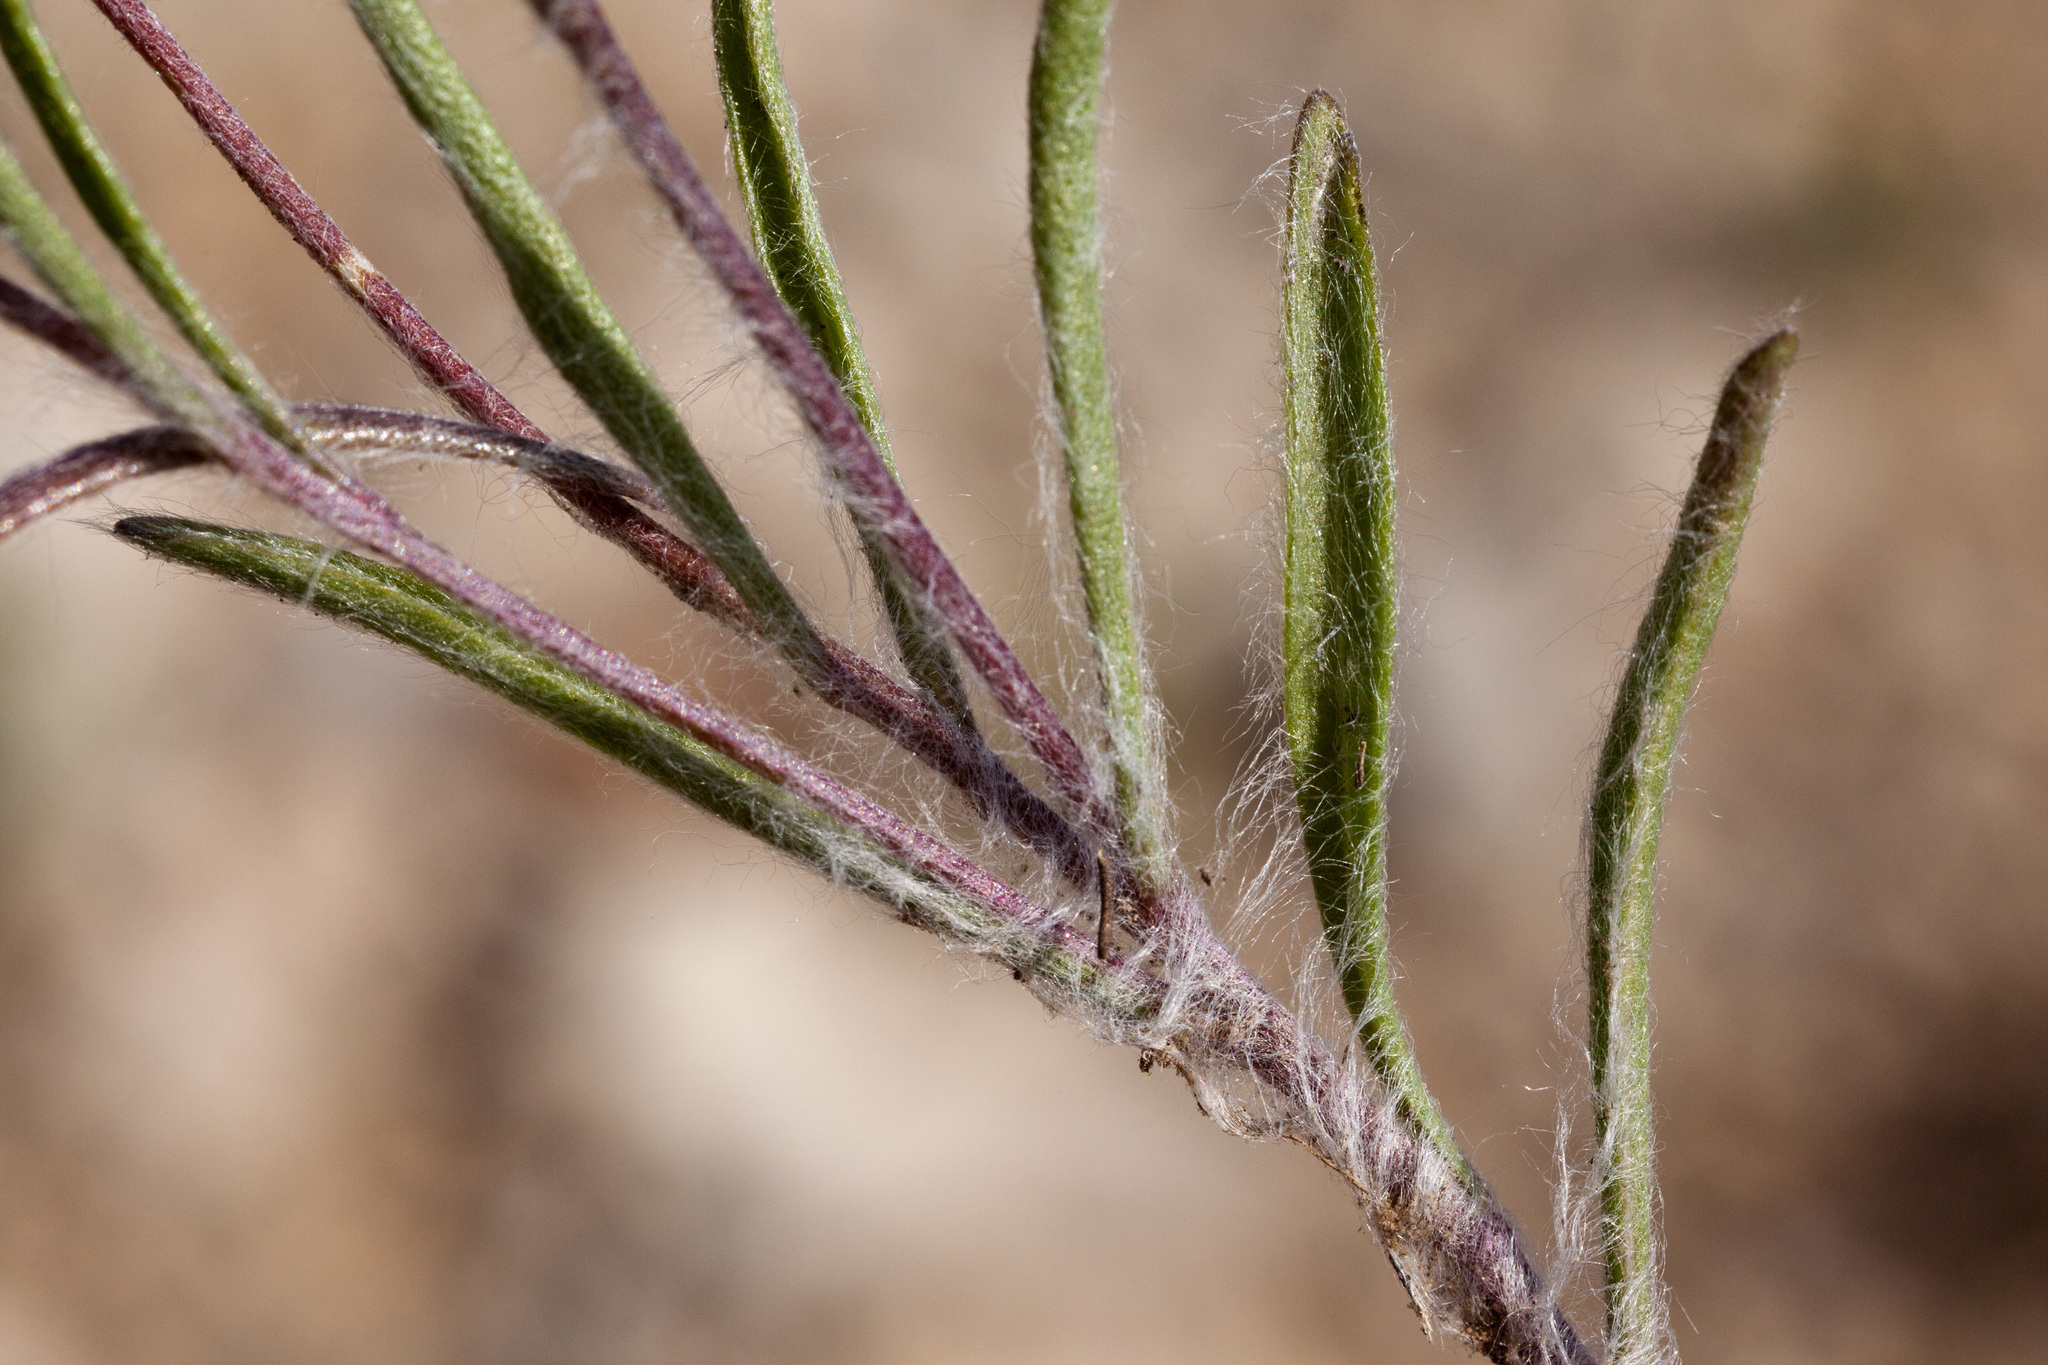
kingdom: Plantae
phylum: Tracheophyta
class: Magnoliopsida
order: Asterales
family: Asteraceae
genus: Tetraneuris
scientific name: Tetraneuris linearifolia
